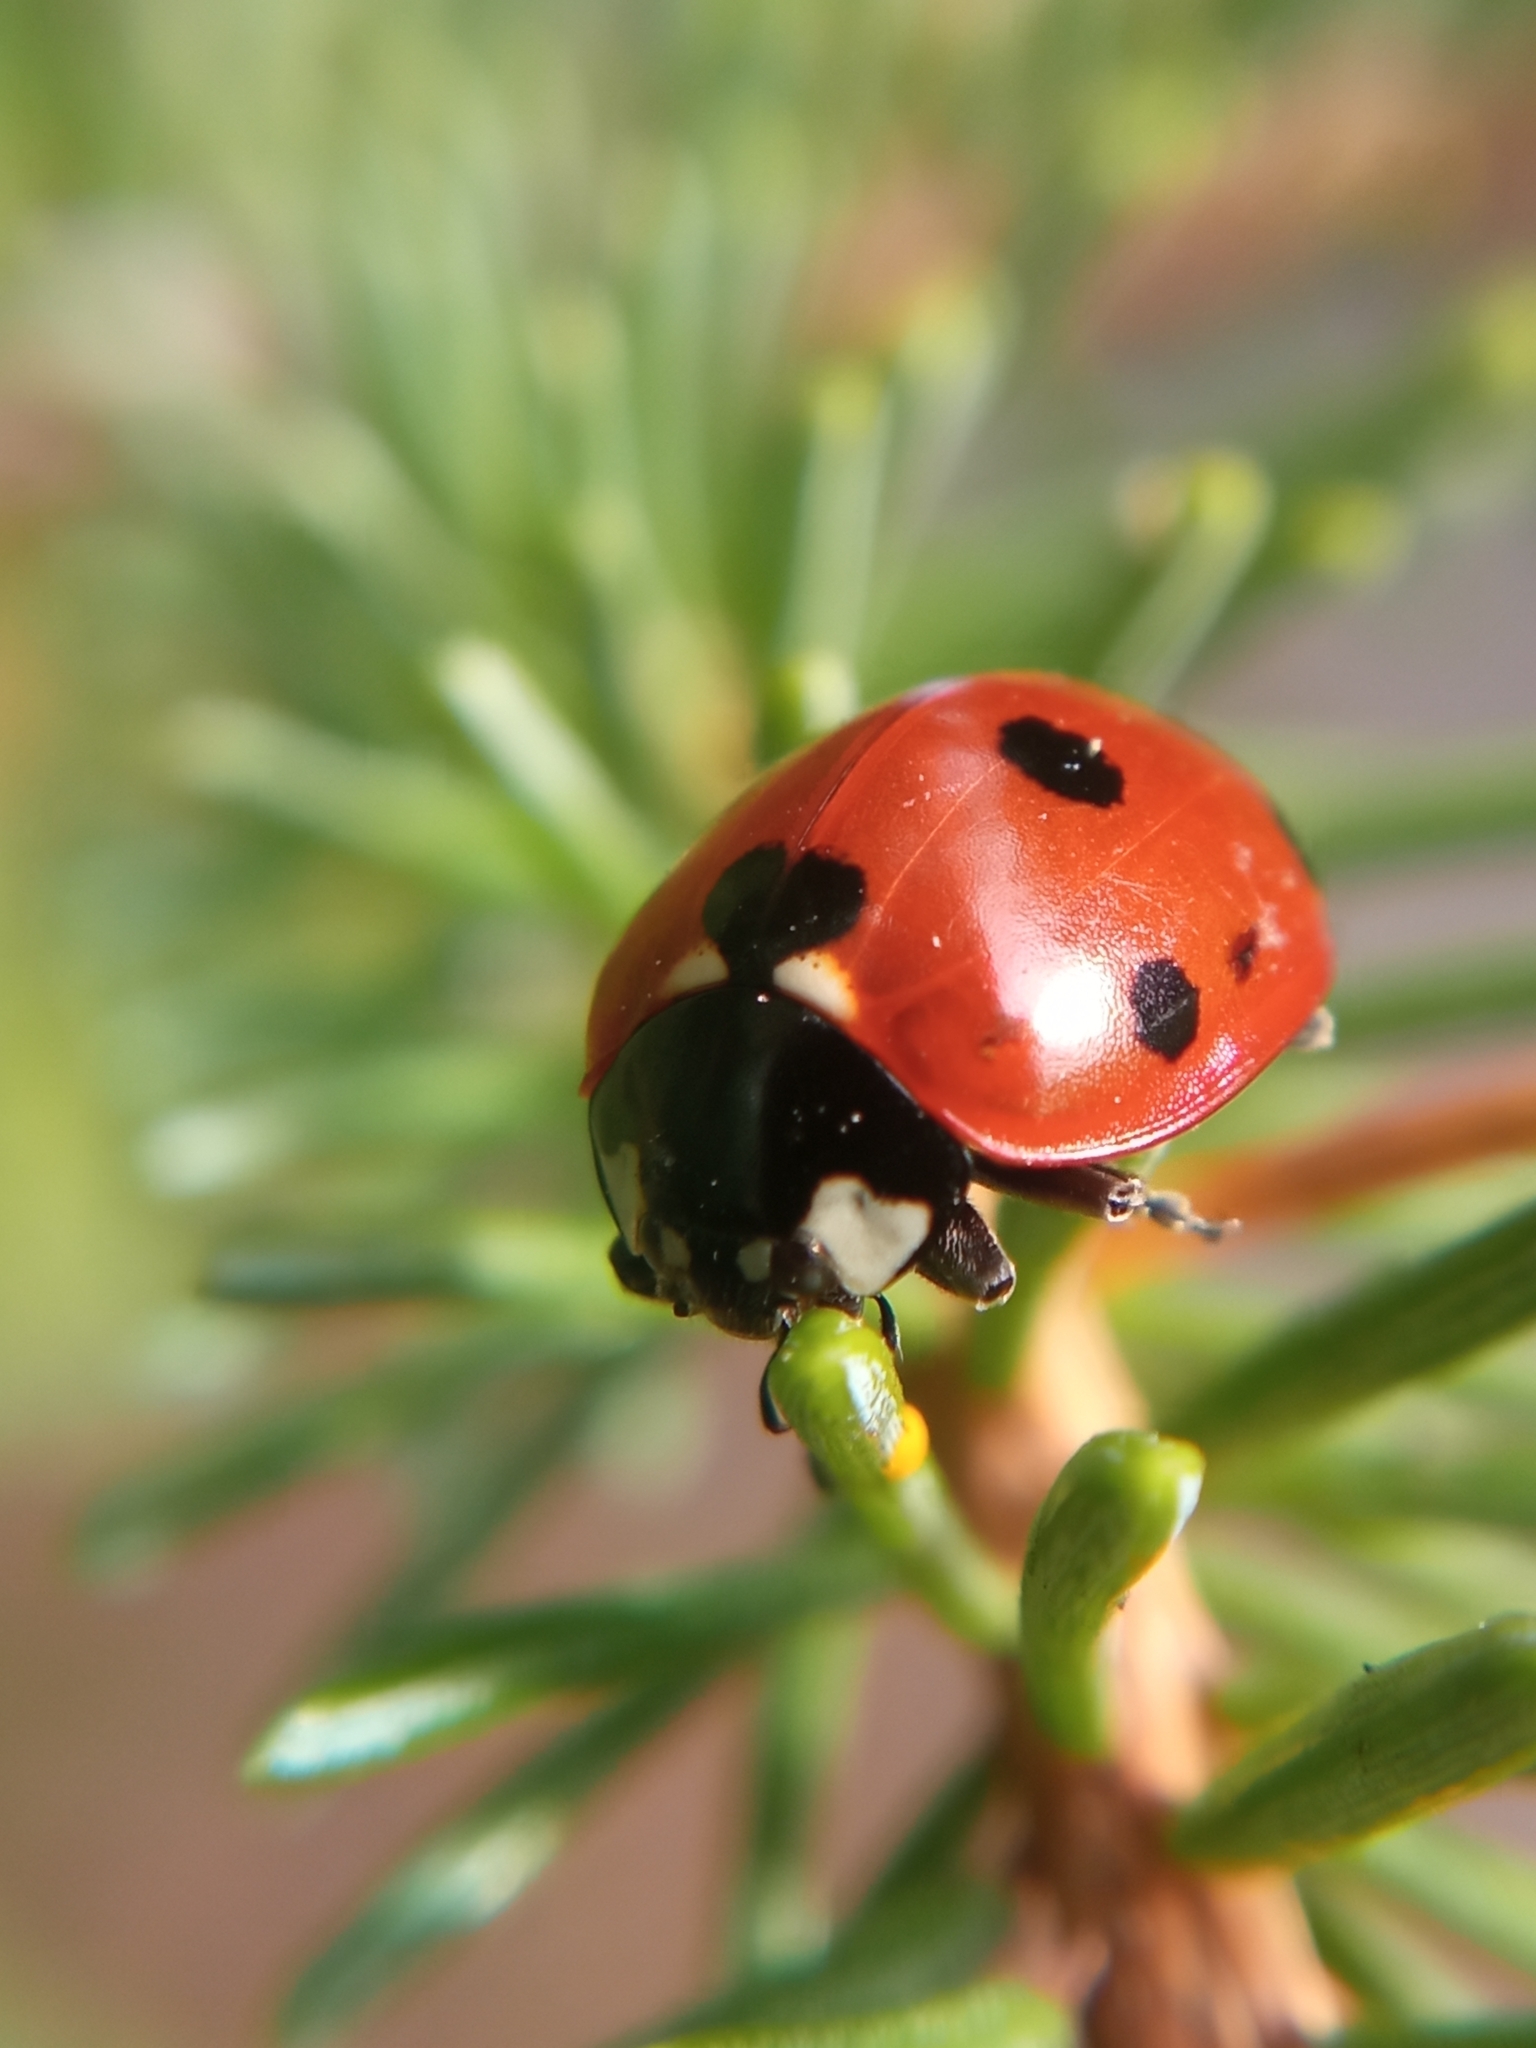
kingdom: Animalia
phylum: Arthropoda
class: Insecta
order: Coleoptera
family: Coccinellidae
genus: Coccinella
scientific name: Coccinella septempunctata
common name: Sevenspotted lady beetle
